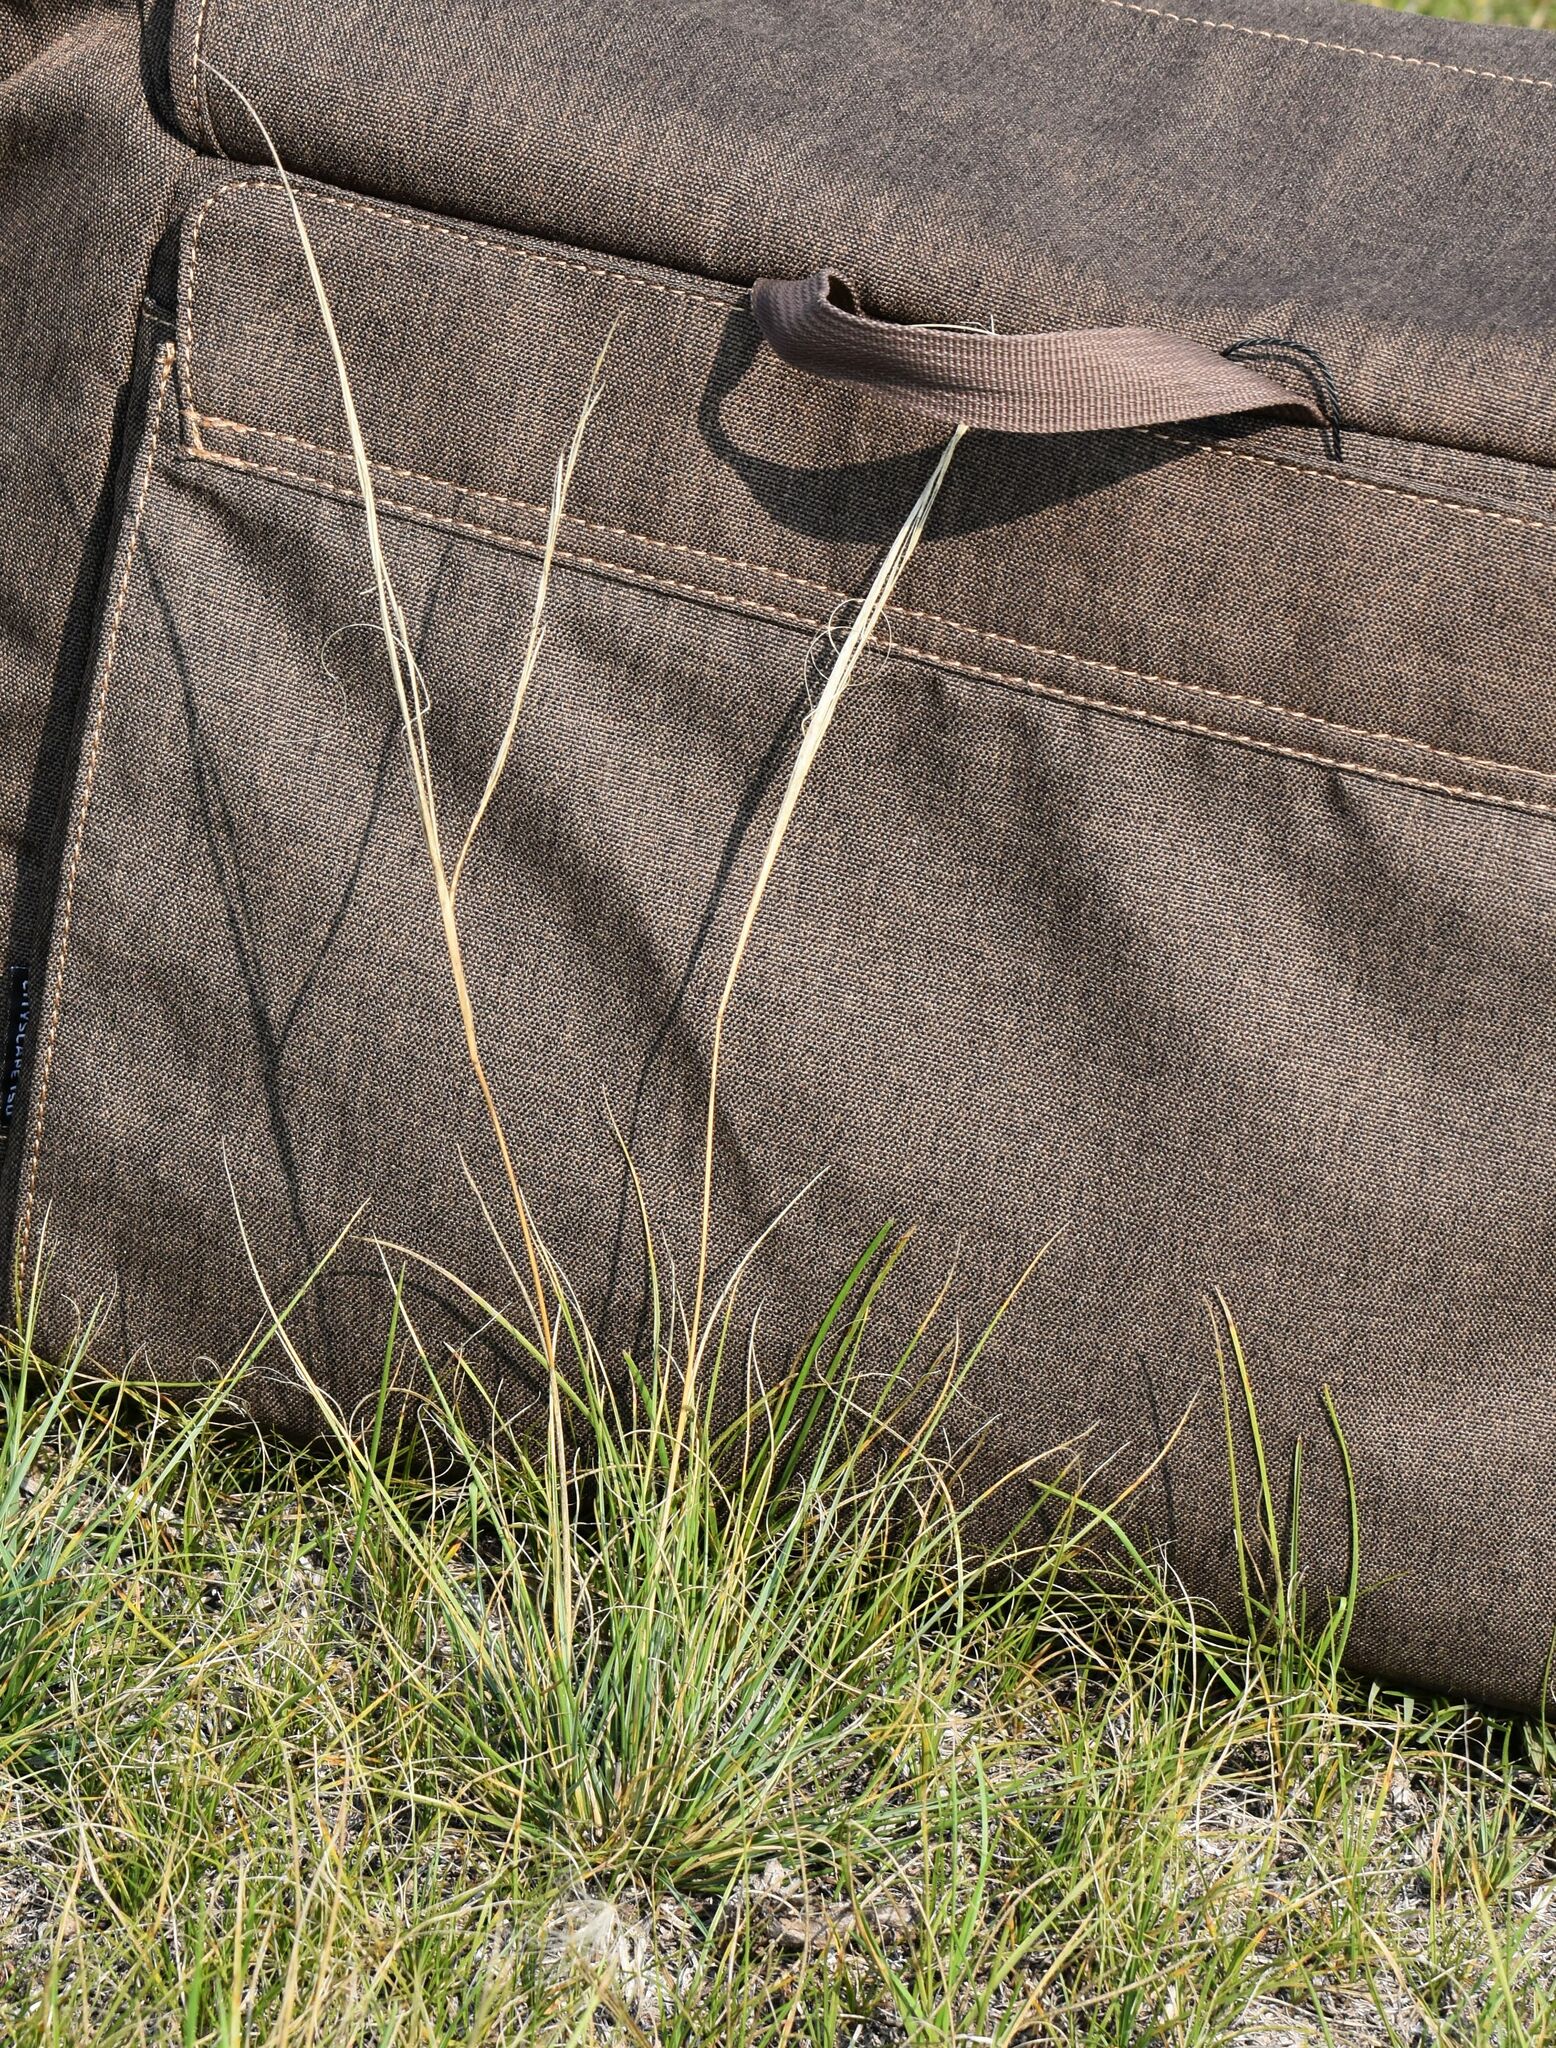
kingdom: Plantae
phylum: Tracheophyta
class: Liliopsida
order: Poales
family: Poaceae
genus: Hesperostipa
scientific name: Hesperostipa comata
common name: Needle-and-thread grass
